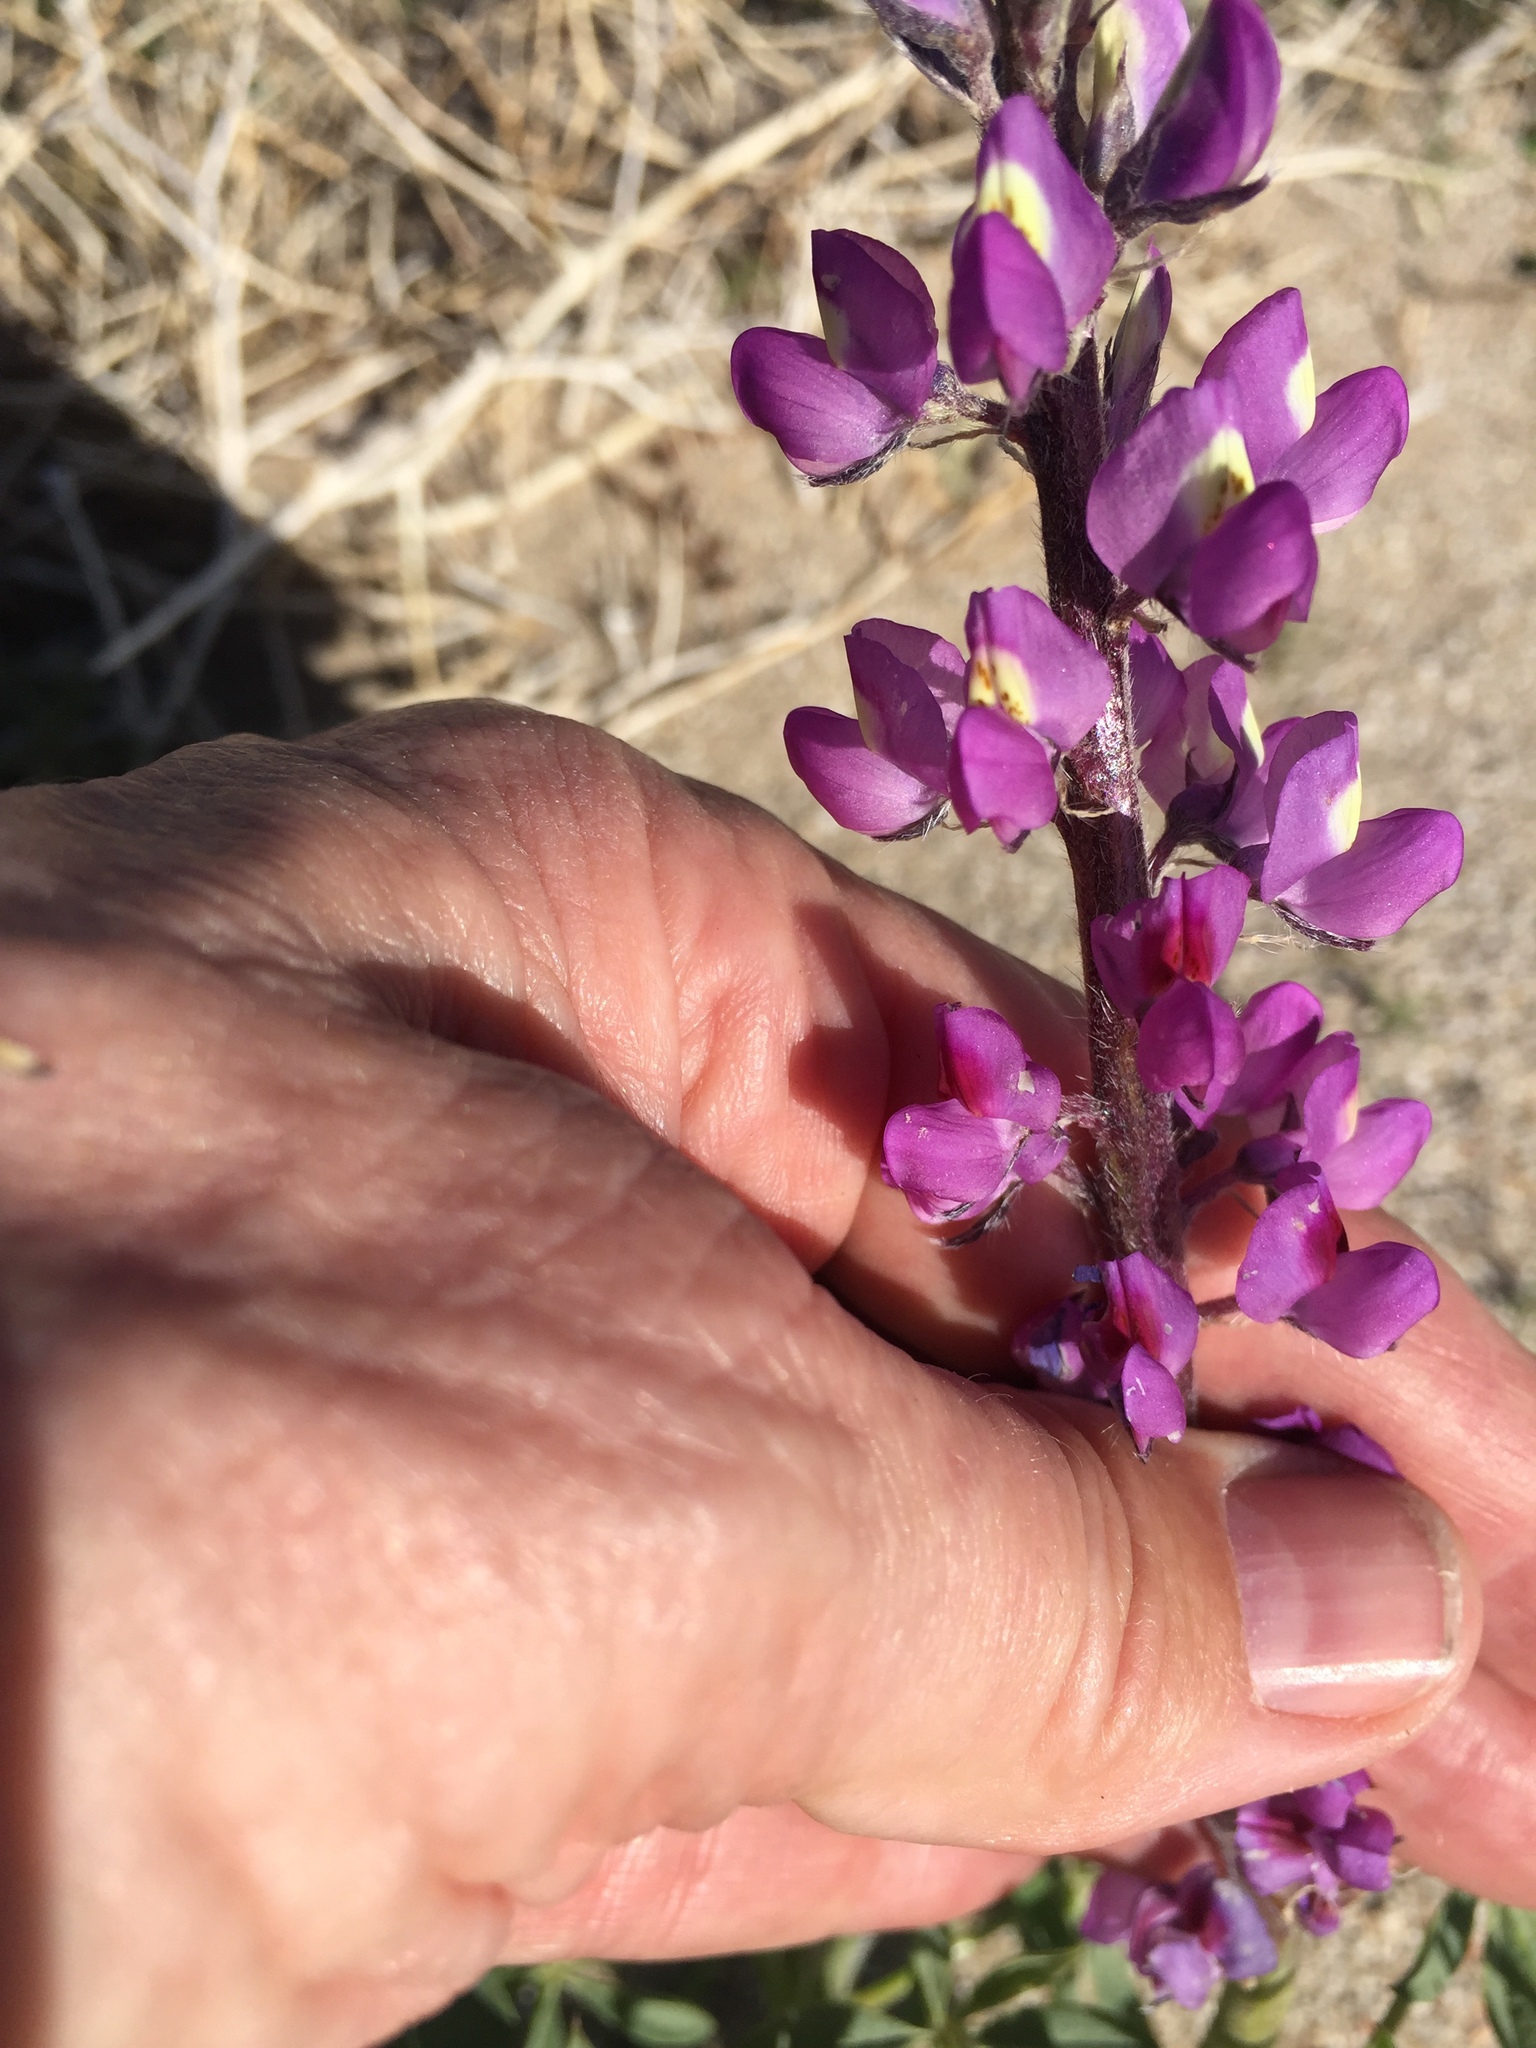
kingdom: Plantae
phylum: Tracheophyta
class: Magnoliopsida
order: Fabales
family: Fabaceae
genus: Lupinus
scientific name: Lupinus arizonicus
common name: Arizona lupine
